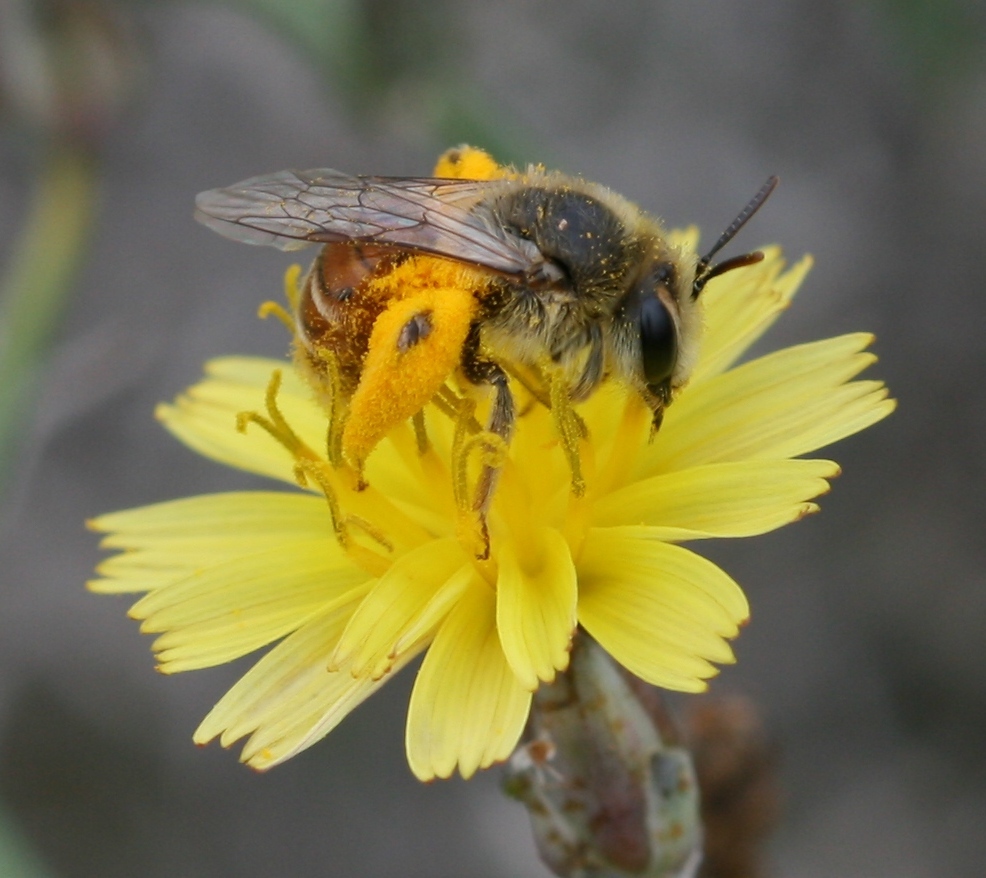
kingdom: Animalia
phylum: Arthropoda
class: Insecta
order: Hymenoptera
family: Andrenidae
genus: Andrena
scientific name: Andrena isis
